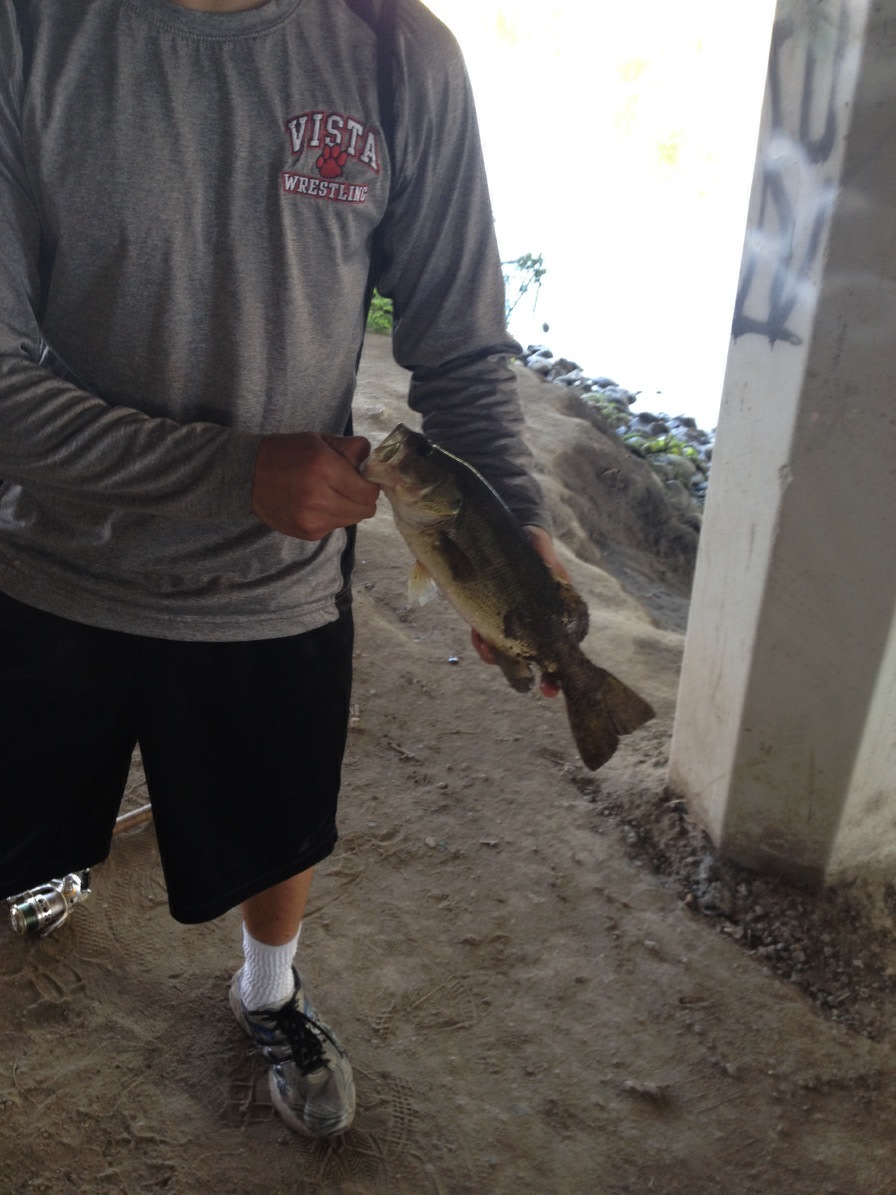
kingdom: Animalia
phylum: Chordata
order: Perciformes
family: Centrarchidae
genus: Micropterus
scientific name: Micropterus
